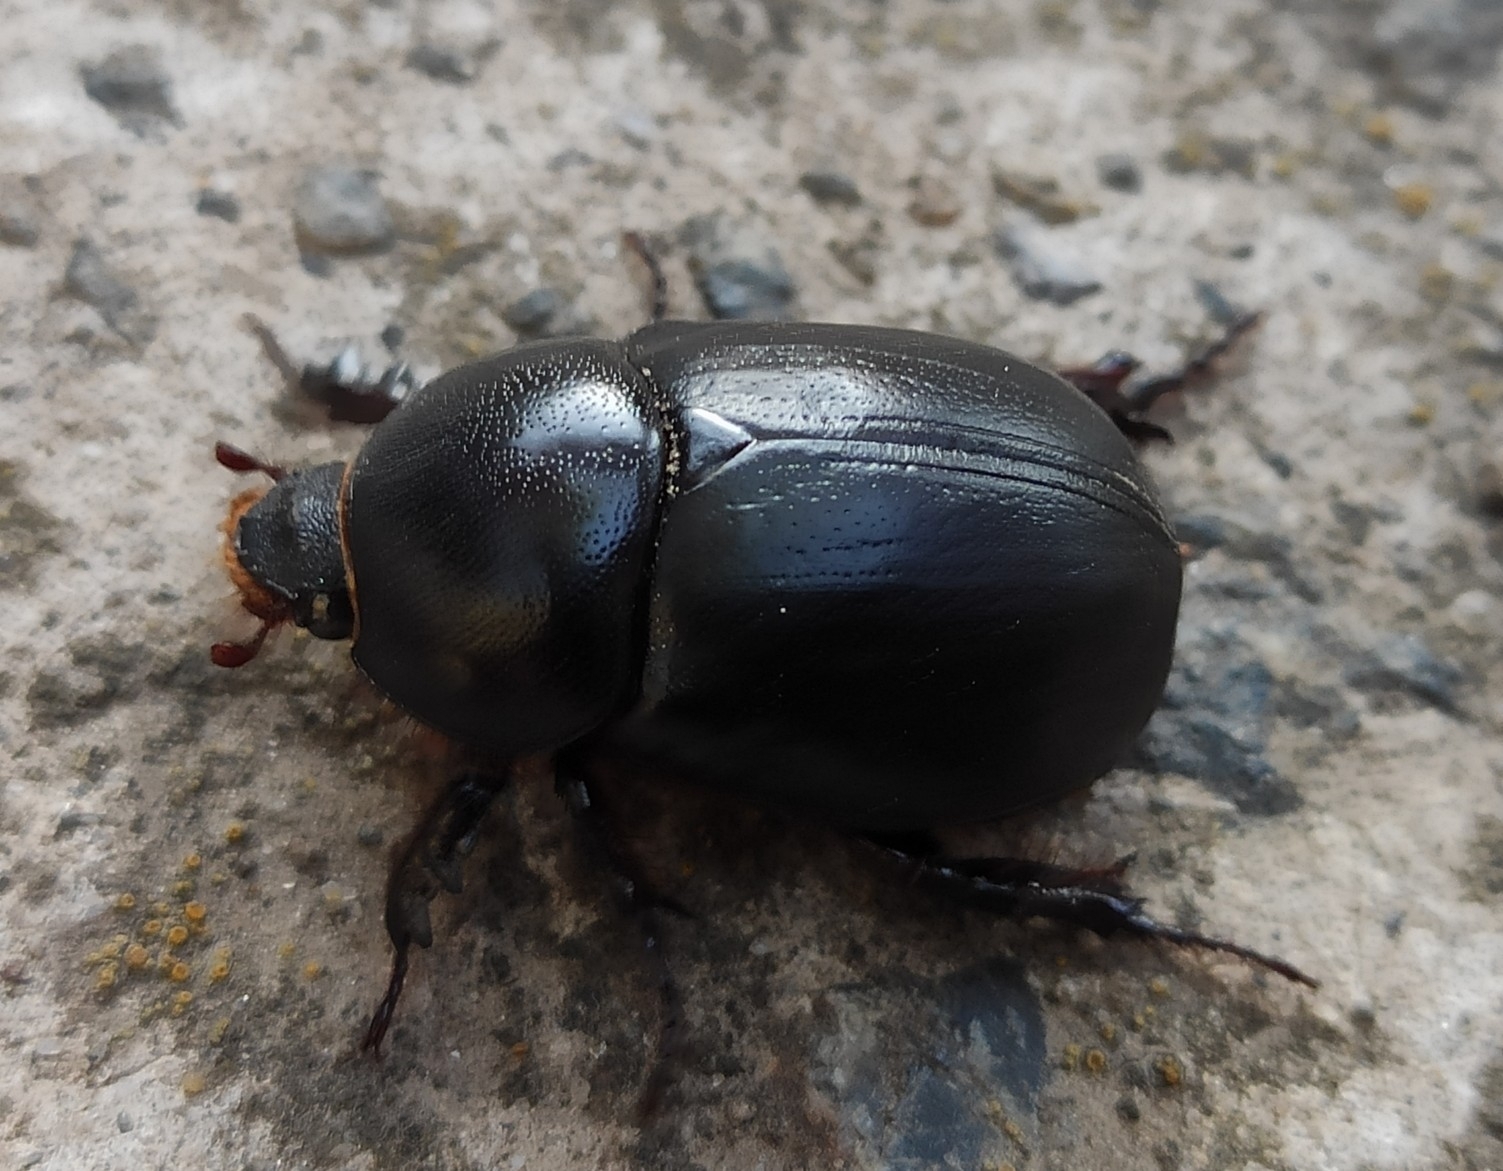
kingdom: Animalia
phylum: Arthropoda
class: Insecta
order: Coleoptera
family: Scarabaeidae
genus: Pentodon
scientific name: Pentodon idiota
